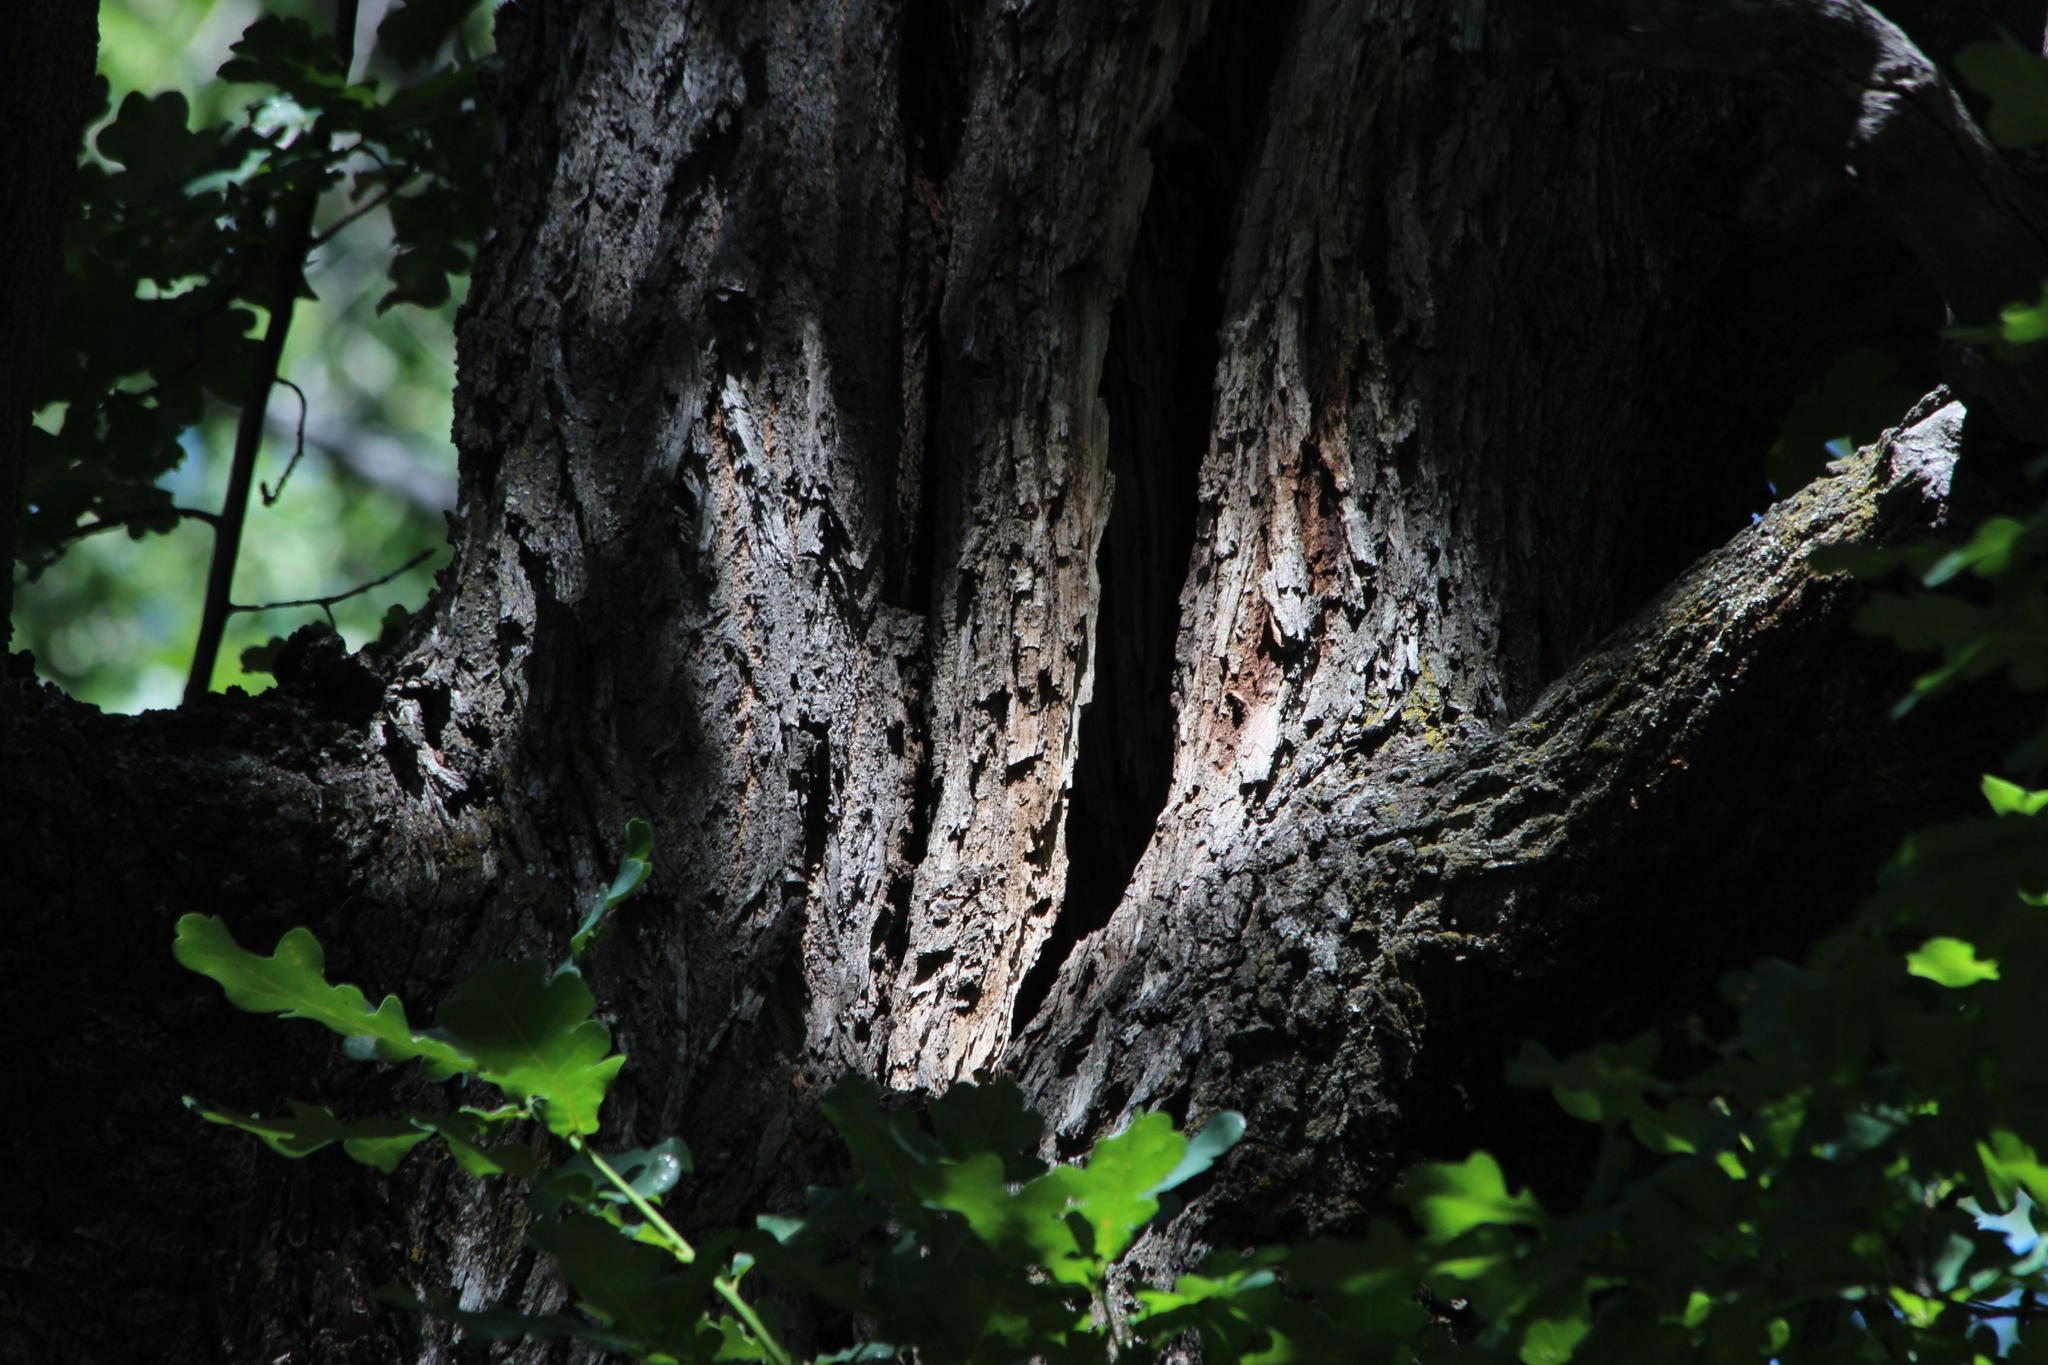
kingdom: Animalia
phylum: Chordata
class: Aves
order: Passeriformes
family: Sturnidae
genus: Sturnus
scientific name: Sturnus vulgaris
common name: Common starling
